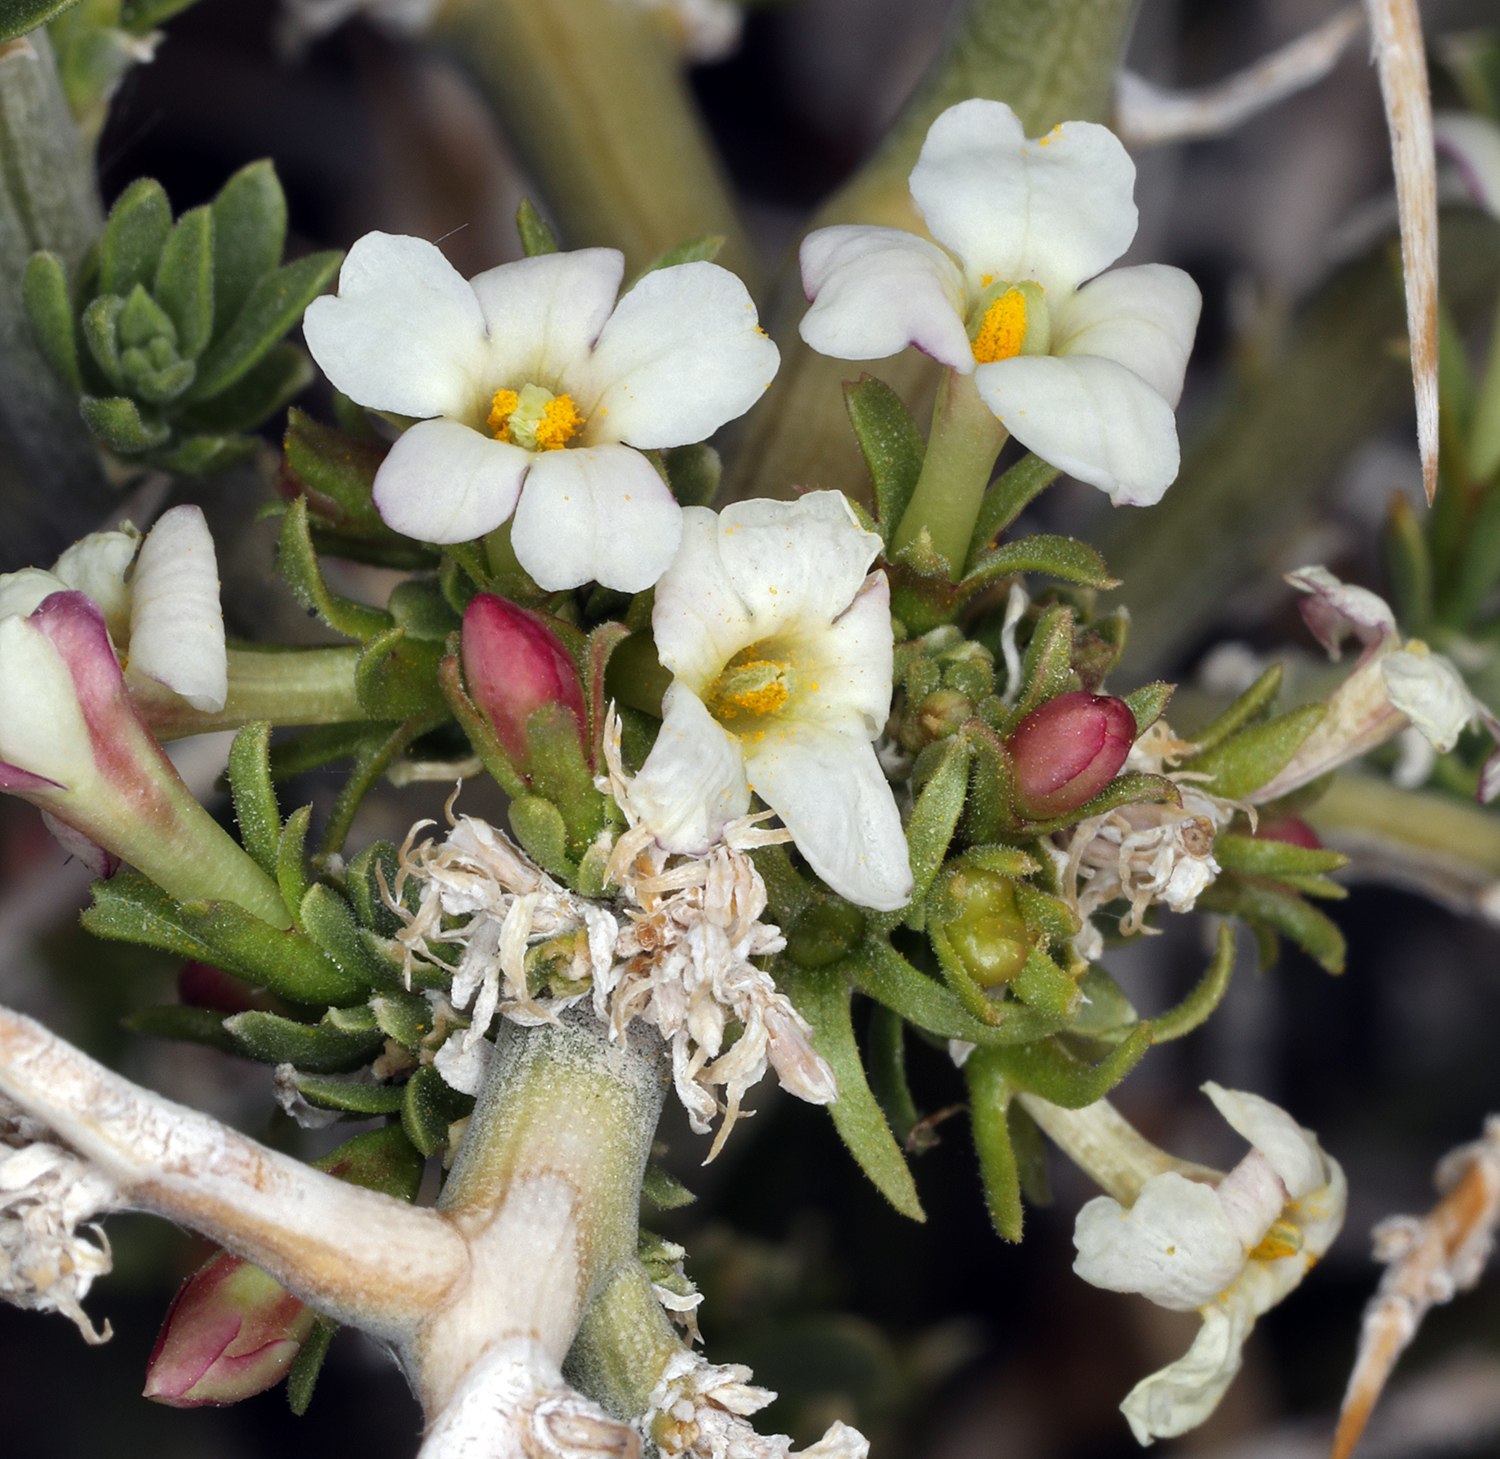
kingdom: Plantae
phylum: Tracheophyta
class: Magnoliopsida
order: Lamiales
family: Oleaceae
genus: Menodora
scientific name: Menodora spinescens
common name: Spiny menodora
